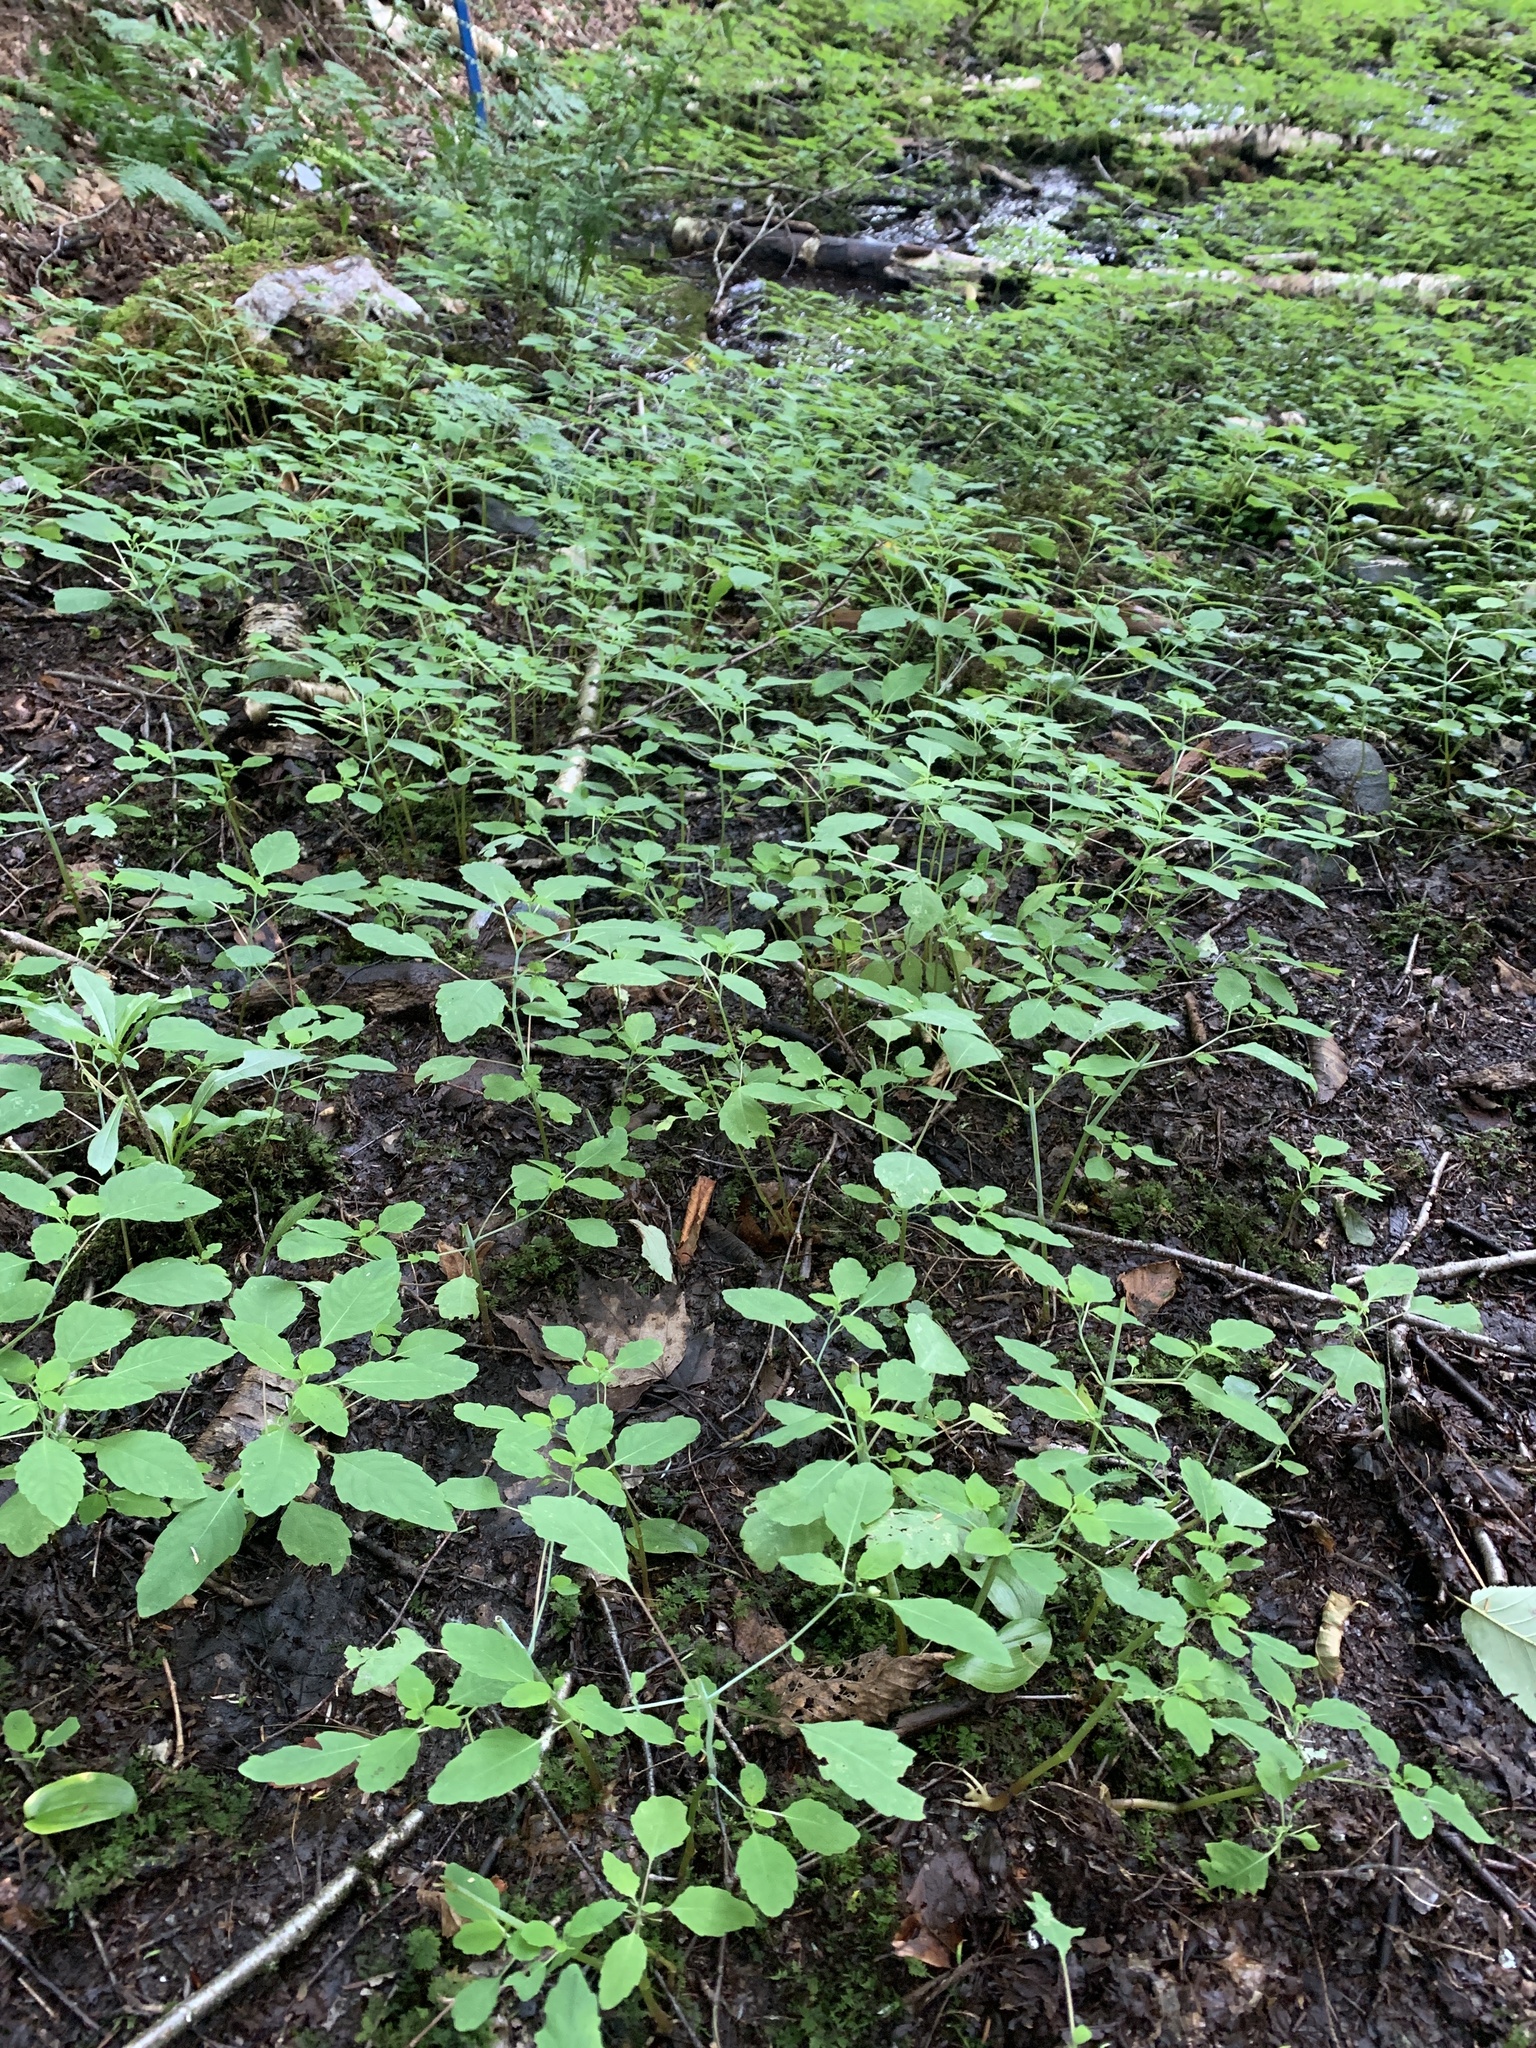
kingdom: Plantae
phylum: Tracheophyta
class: Magnoliopsida
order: Ericales
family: Balsaminaceae
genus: Impatiens
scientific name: Impatiens capensis
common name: Orange balsam
